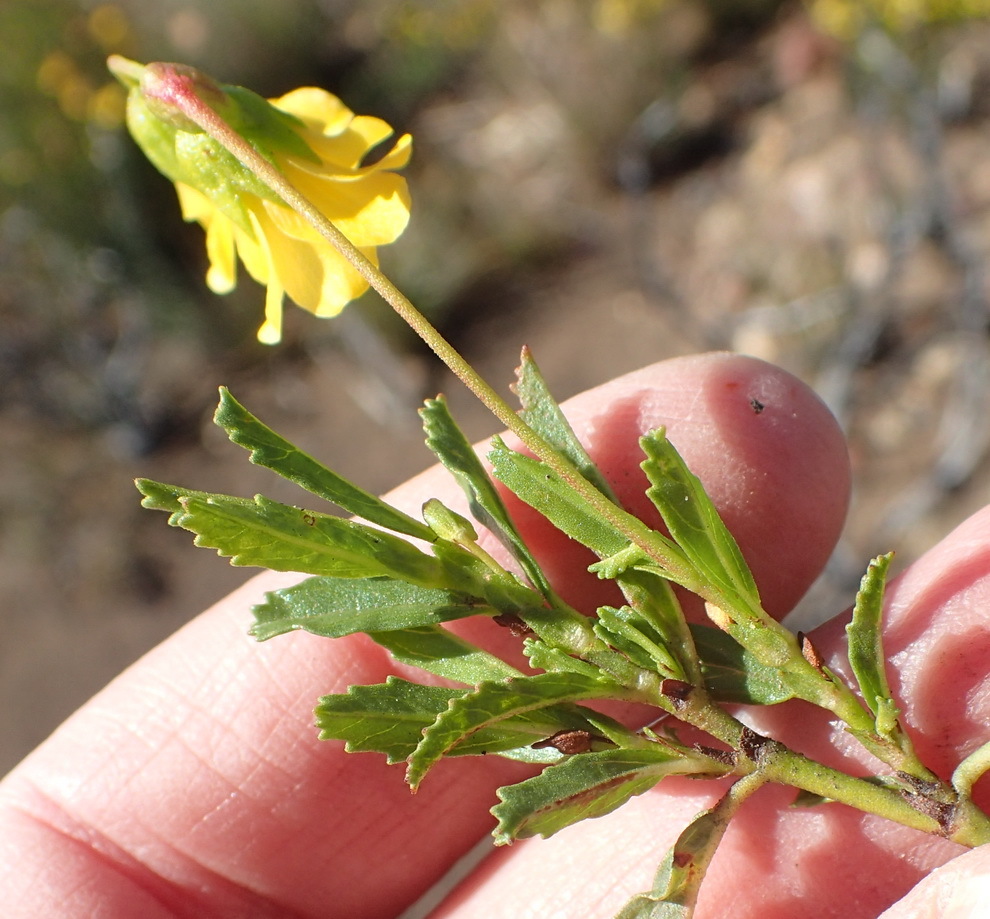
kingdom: Plantae
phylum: Tracheophyta
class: Magnoliopsida
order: Malvales
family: Malvaceae
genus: Hermannia
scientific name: Hermannia saccifera
